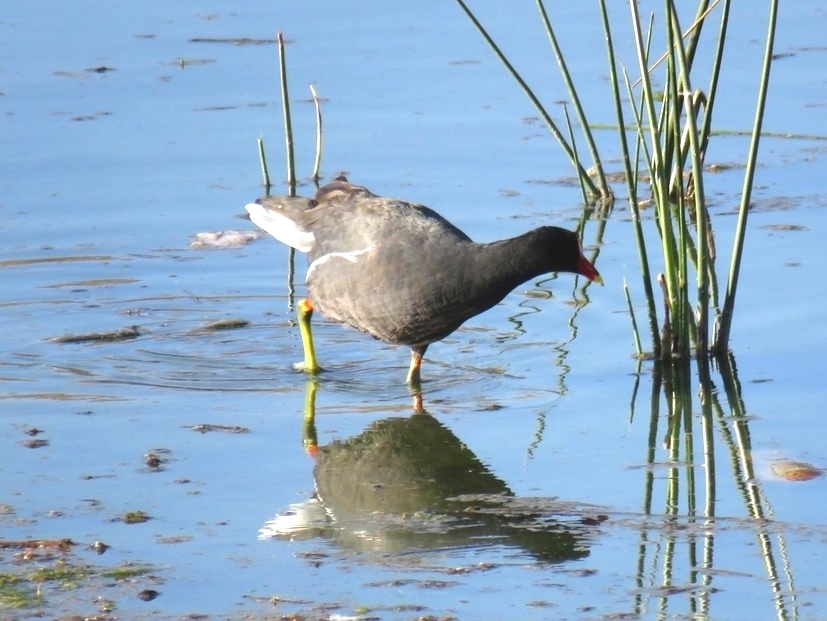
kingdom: Animalia
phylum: Chordata
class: Aves
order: Gruiformes
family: Rallidae
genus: Gallinula
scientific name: Gallinula chloropus
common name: Common moorhen
